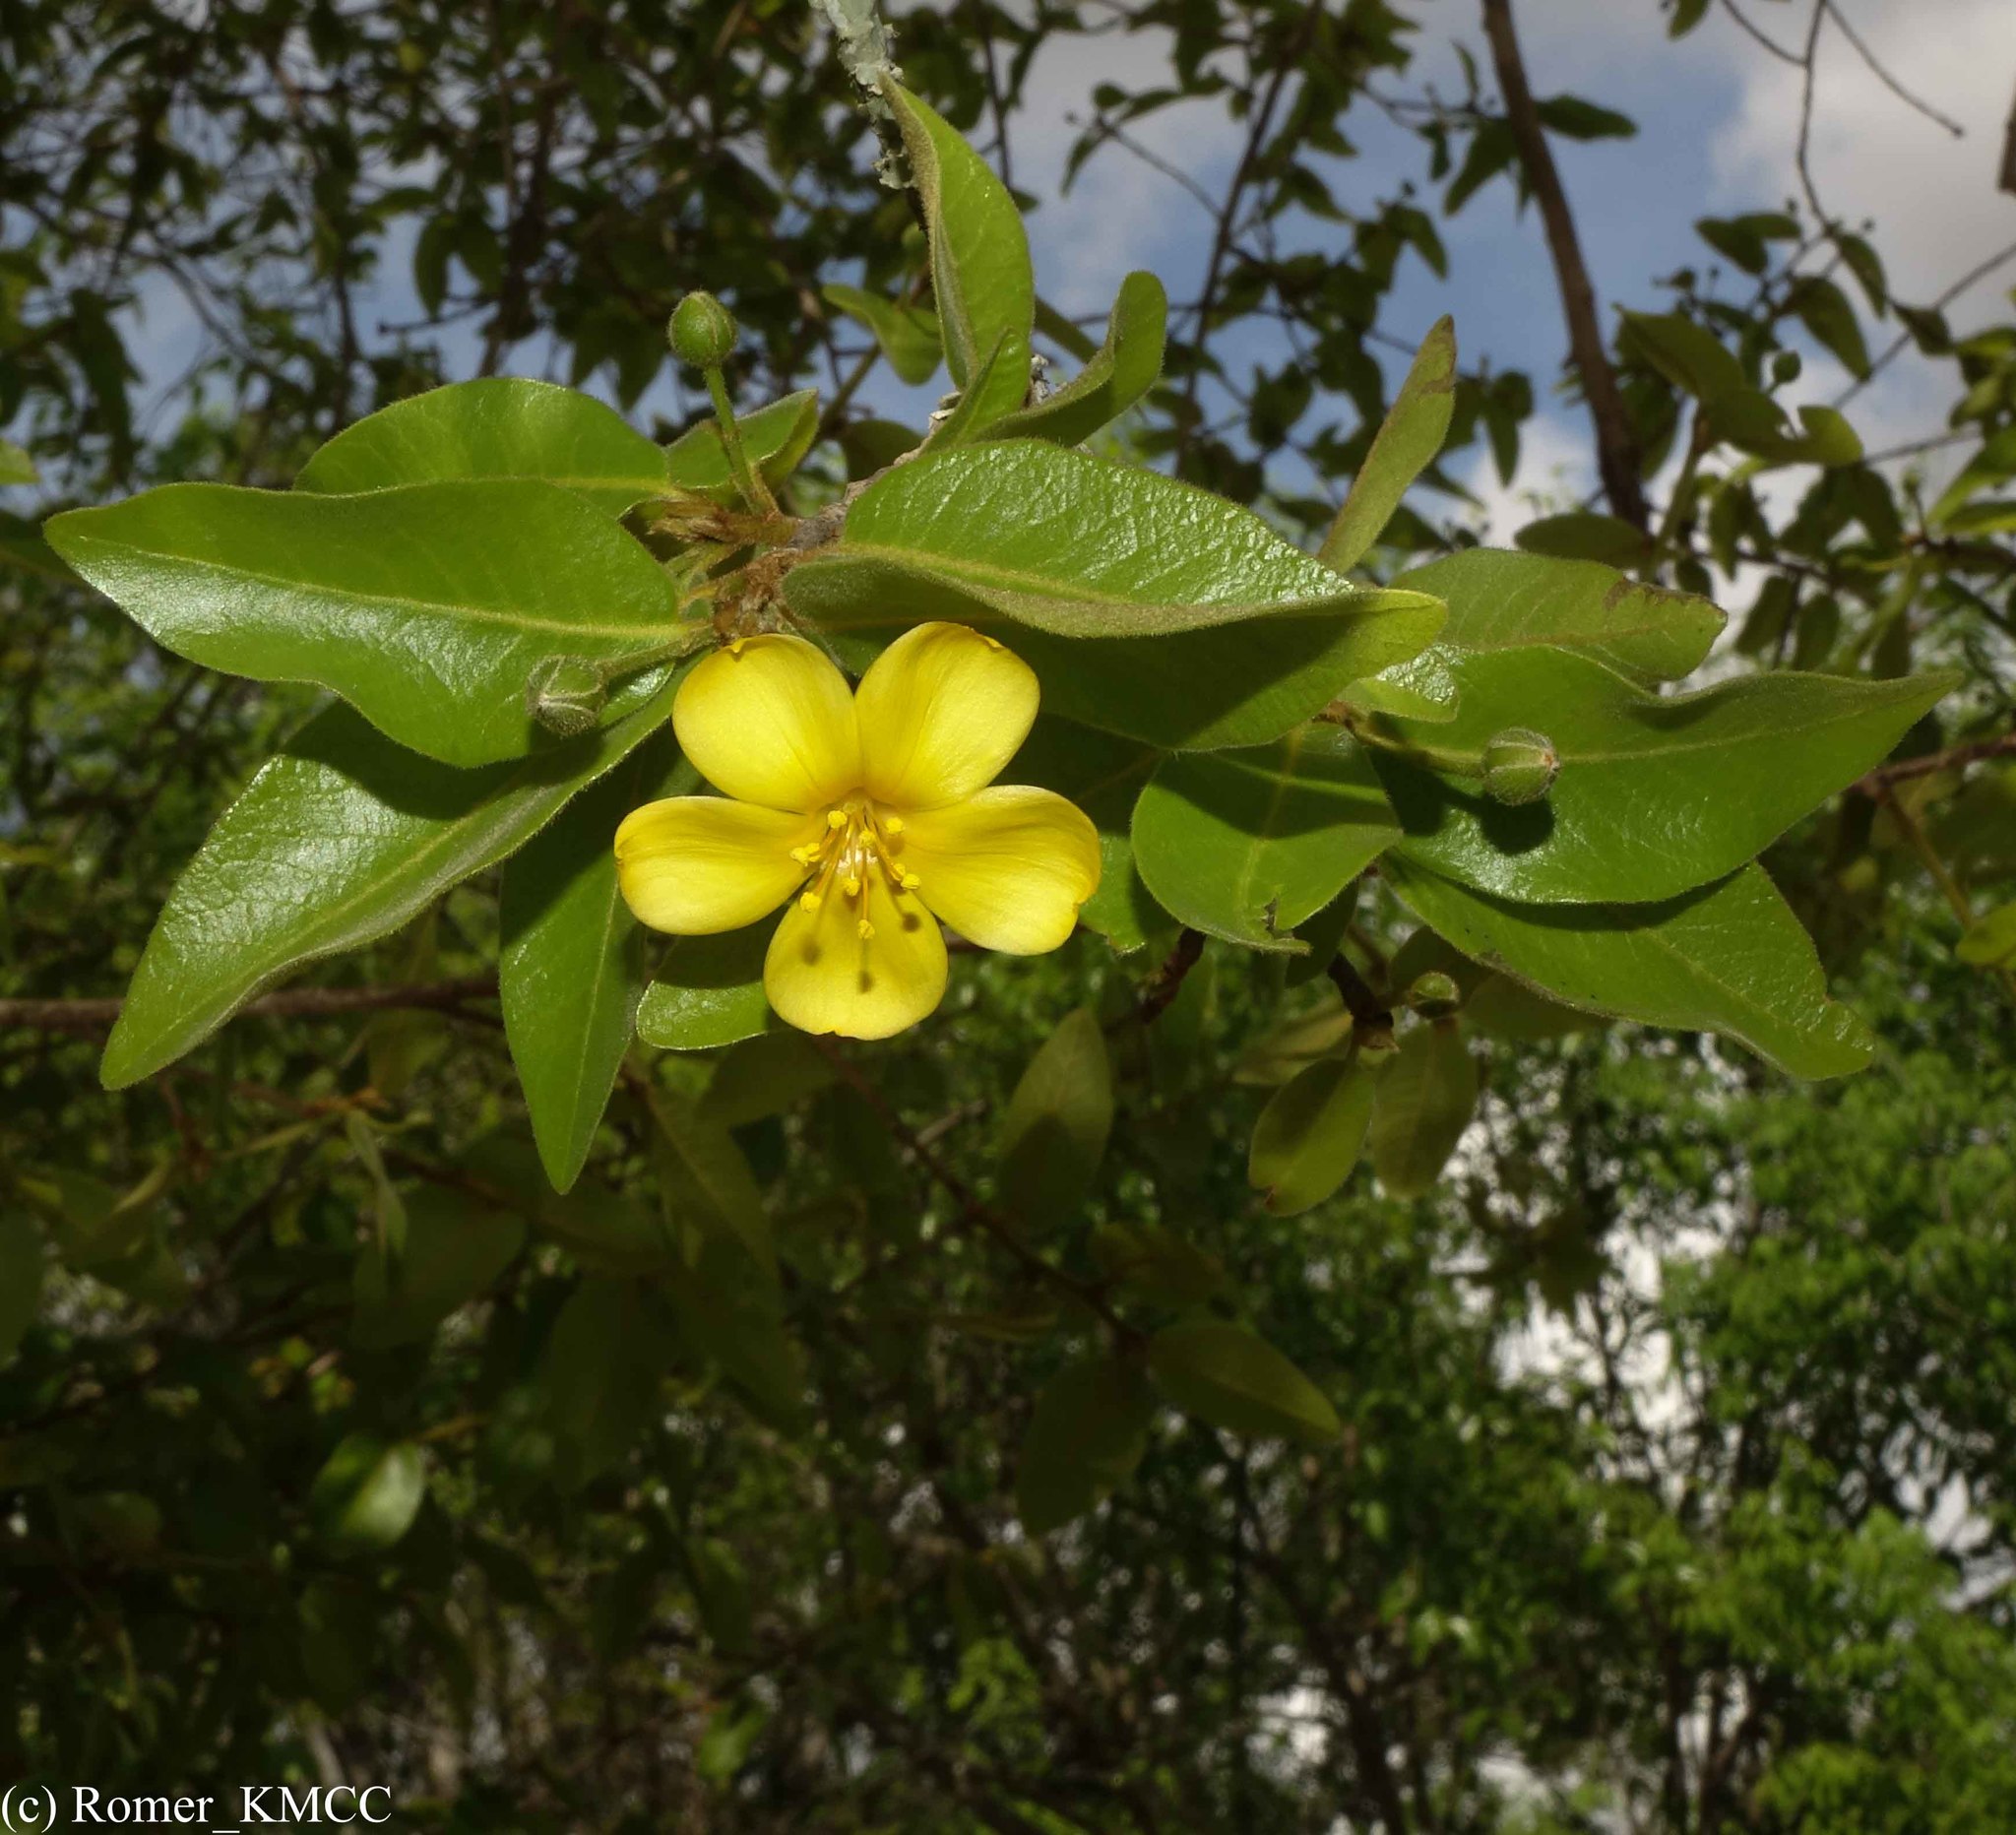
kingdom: Plantae
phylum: Tracheophyta
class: Magnoliopsida
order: Malpighiales
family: Linaceae
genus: Hugonia
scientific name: Hugonia longipes
